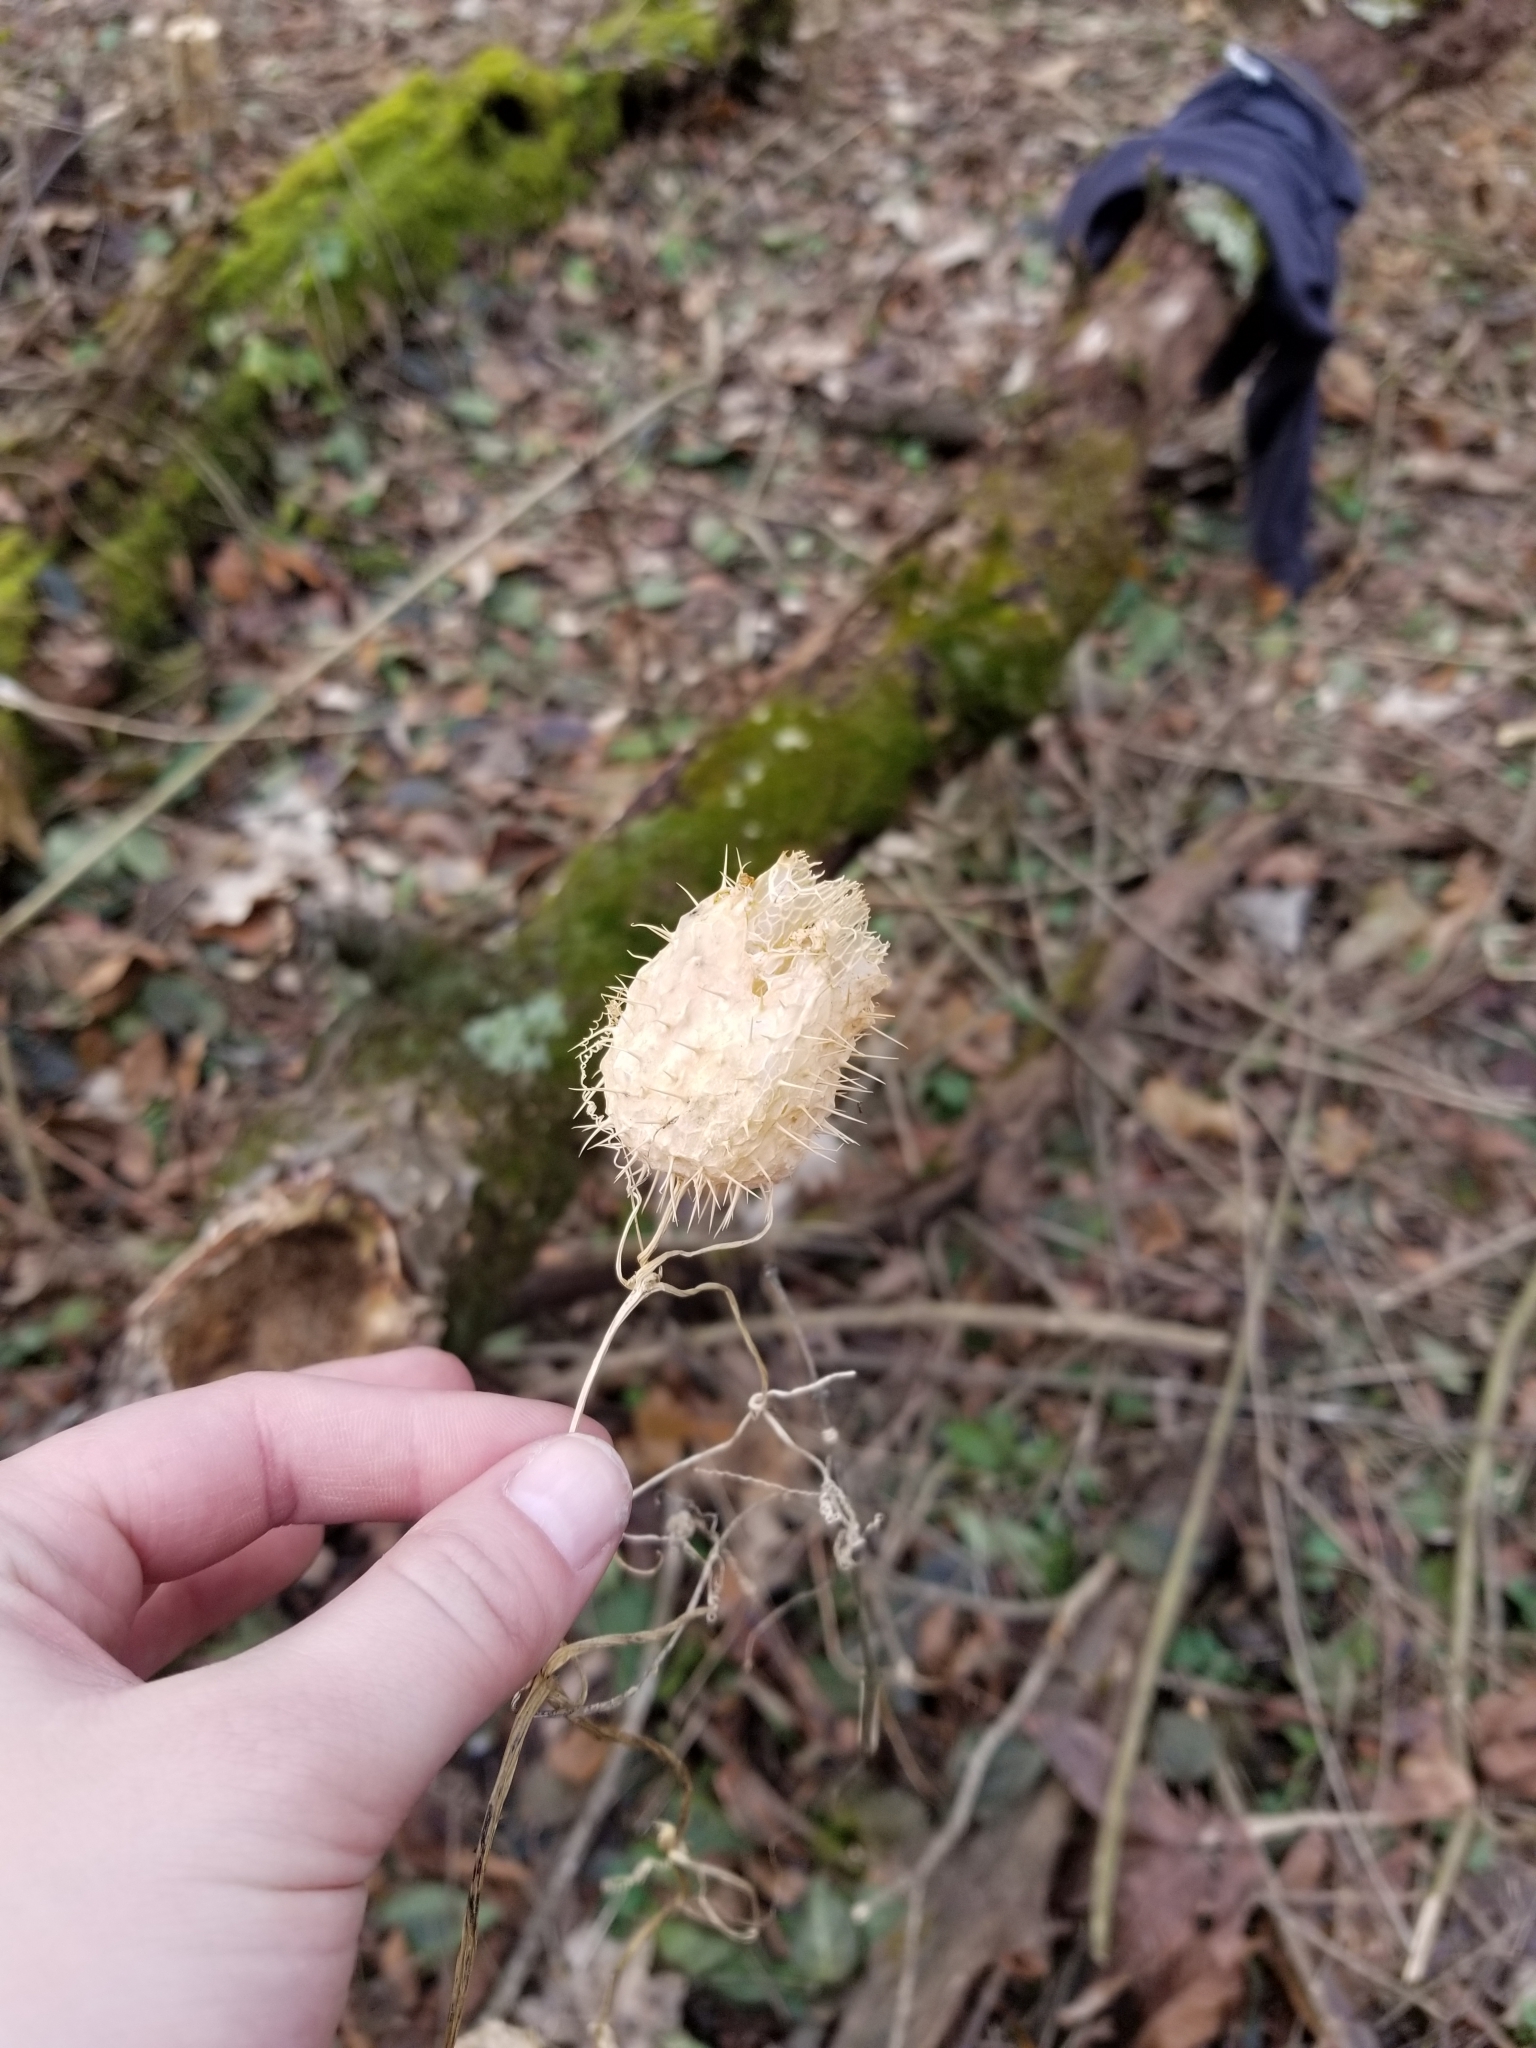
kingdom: Plantae
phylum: Tracheophyta
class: Magnoliopsida
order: Cucurbitales
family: Cucurbitaceae
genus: Echinocystis
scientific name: Echinocystis lobata
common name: Wild cucumber
